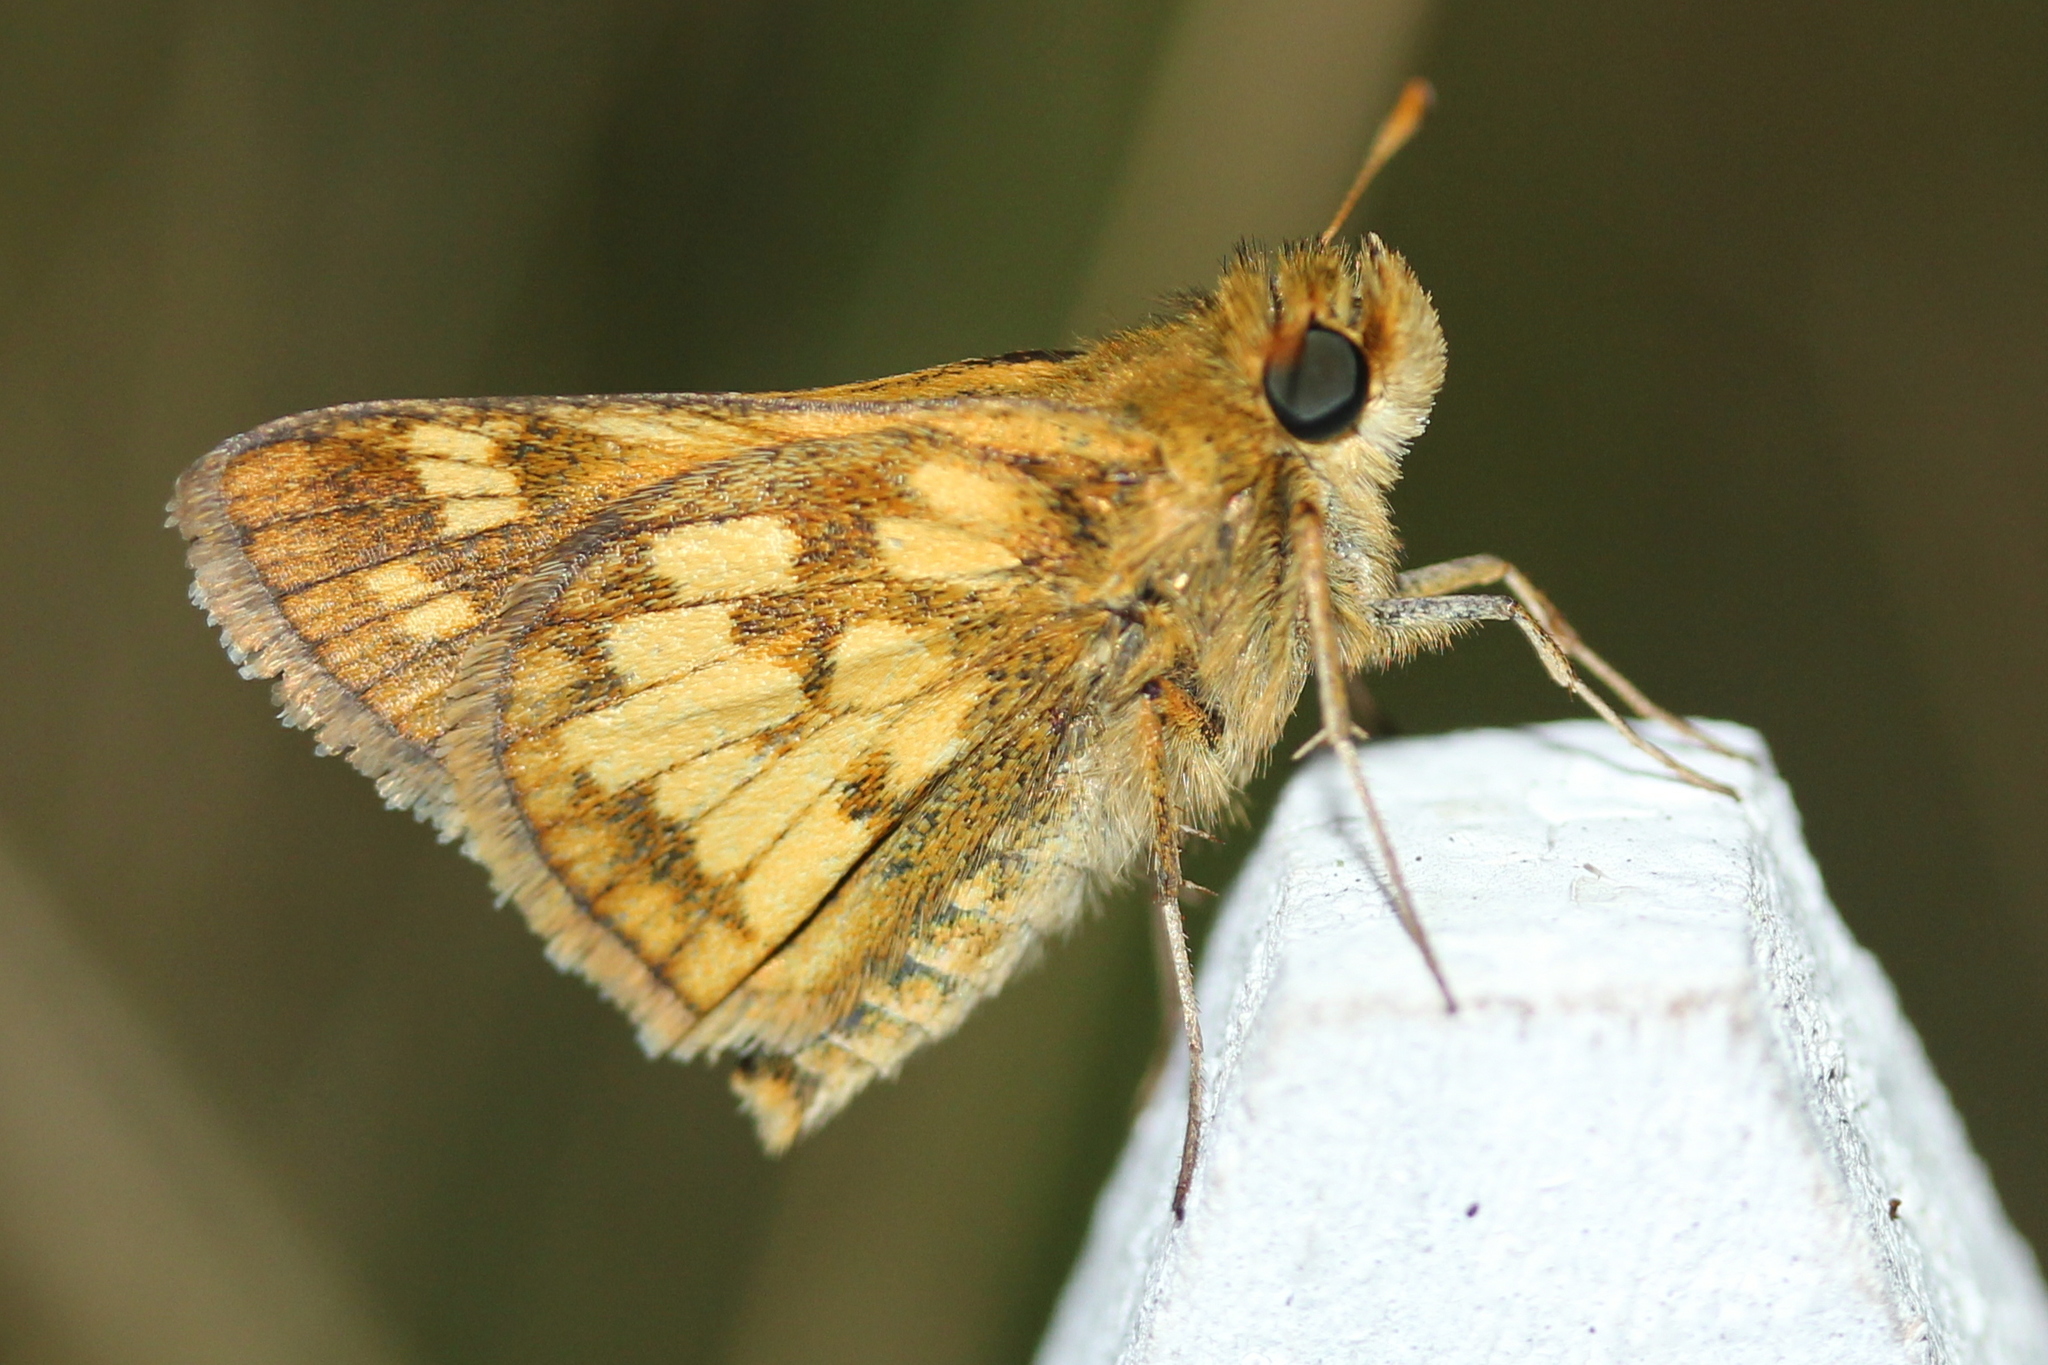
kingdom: Animalia
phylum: Arthropoda
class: Insecta
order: Lepidoptera
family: Hesperiidae
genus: Polites
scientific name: Polites coras
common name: Peck's skipper
